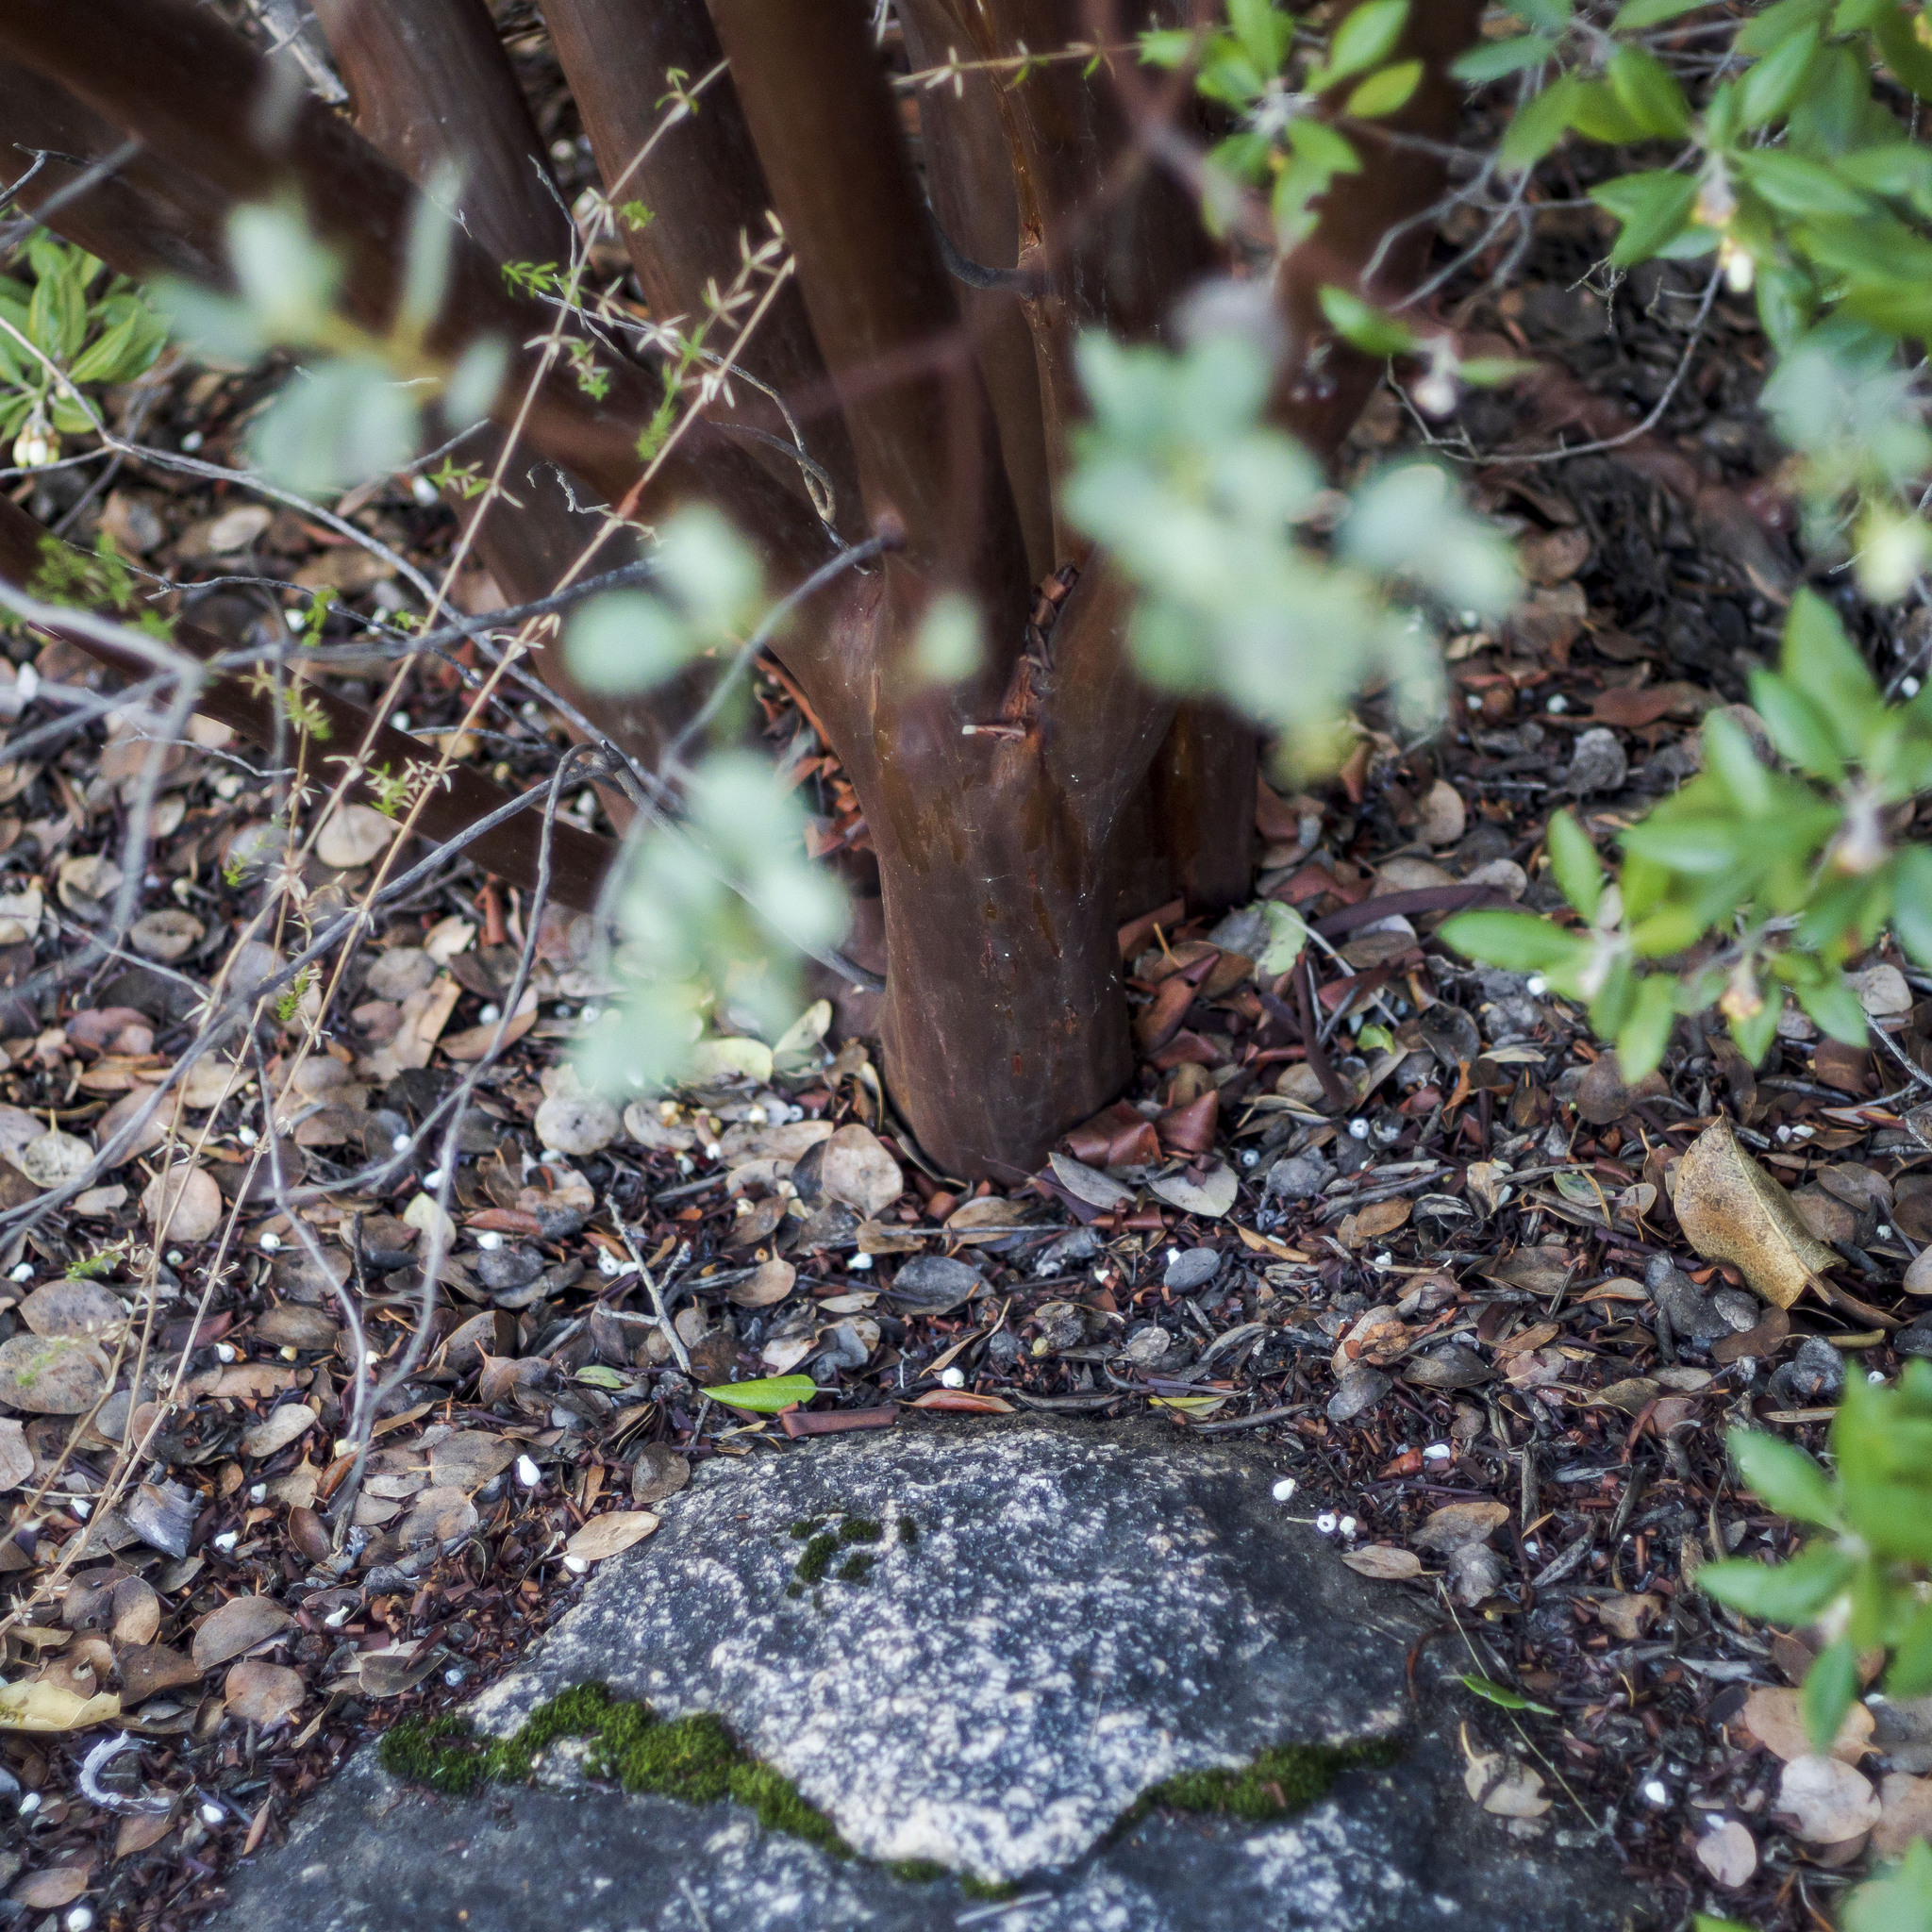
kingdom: Plantae
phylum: Tracheophyta
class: Magnoliopsida
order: Ericales
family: Ericaceae
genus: Arctostaphylos
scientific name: Arctostaphylos glauca
